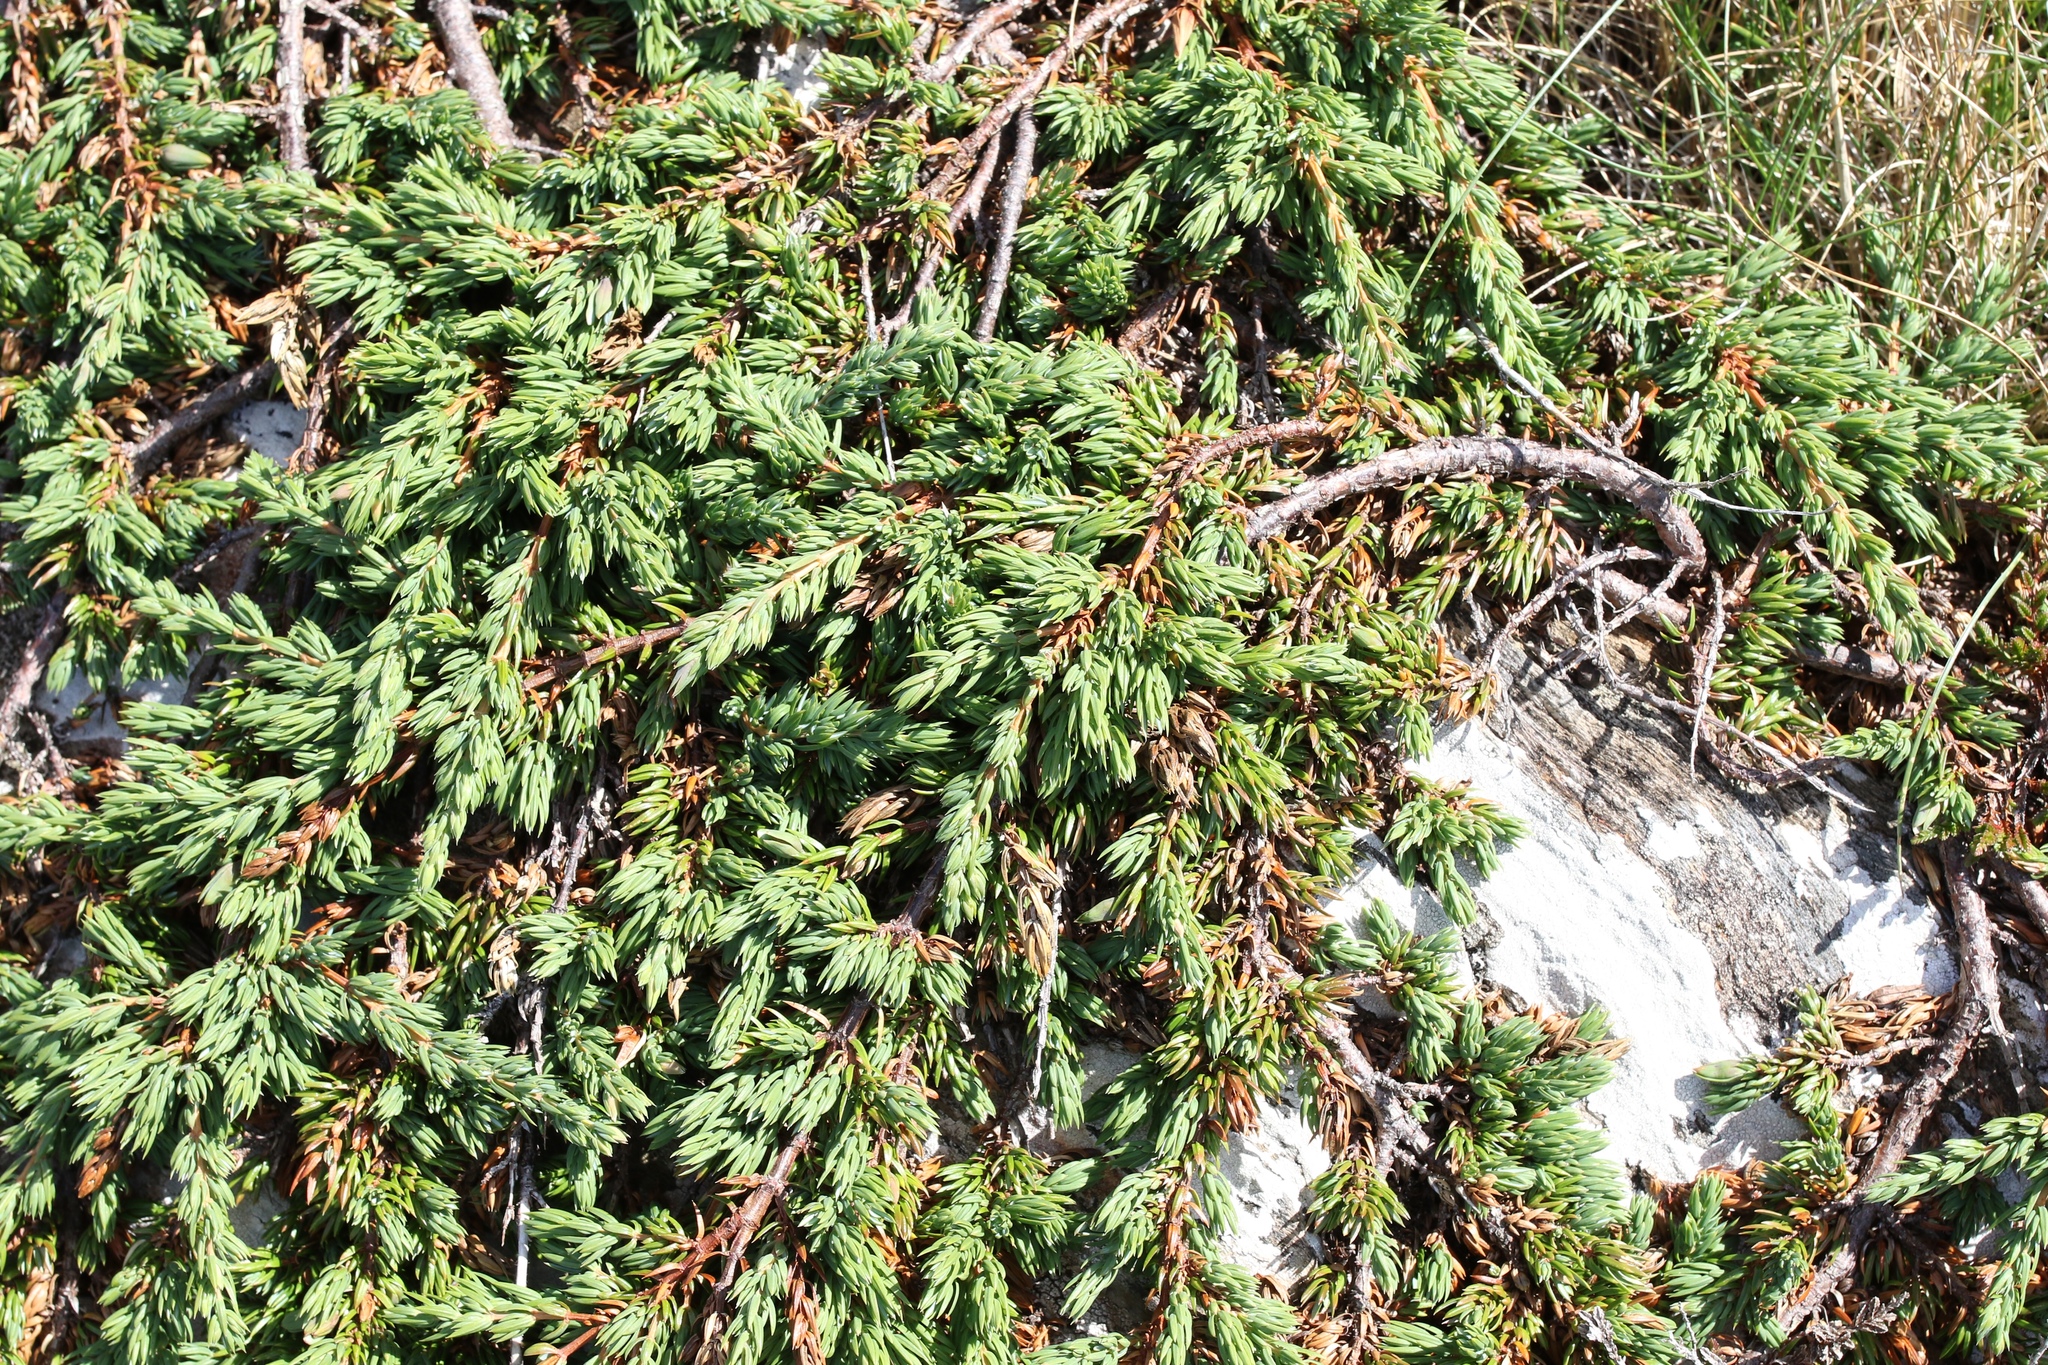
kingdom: Plantae
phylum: Tracheophyta
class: Pinopsida
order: Pinales
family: Cupressaceae
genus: Juniperus
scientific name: Juniperus communis
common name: Common juniper
